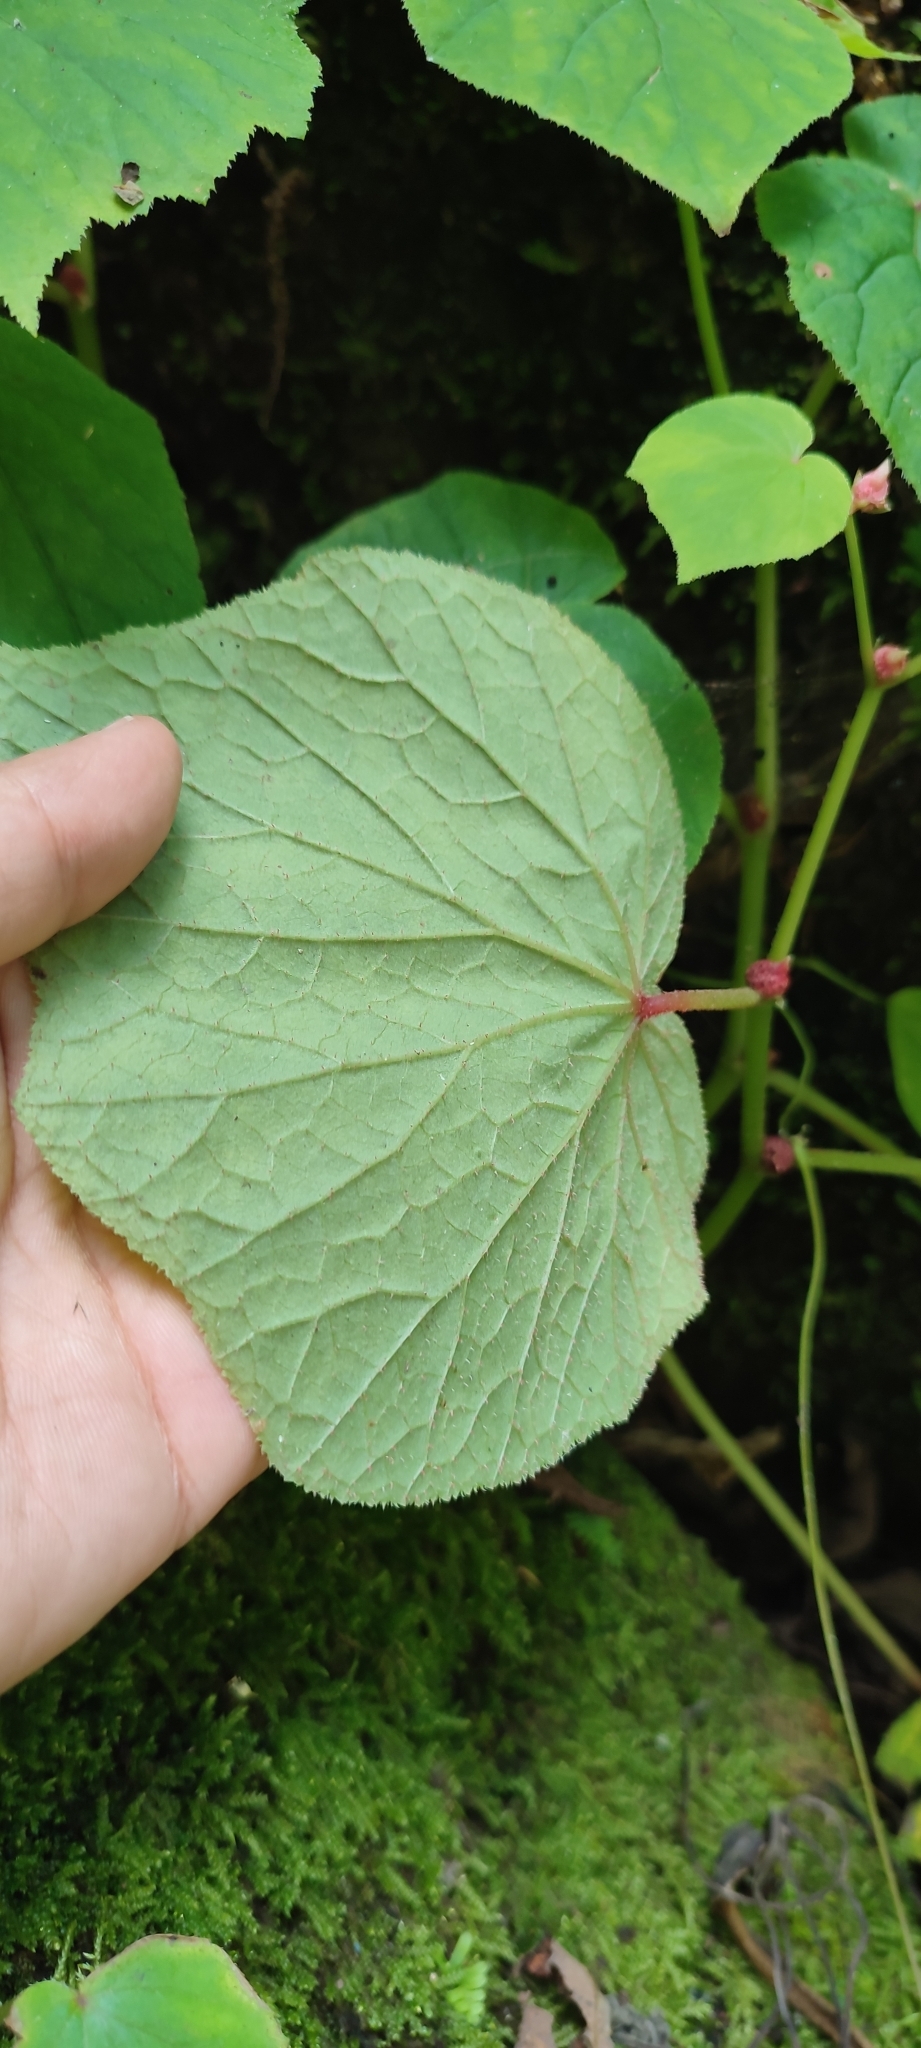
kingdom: Plantae
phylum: Tracheophyta
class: Magnoliopsida
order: Cucurbitales
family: Begoniaceae
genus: Begonia
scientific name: Begonia uruapensis
